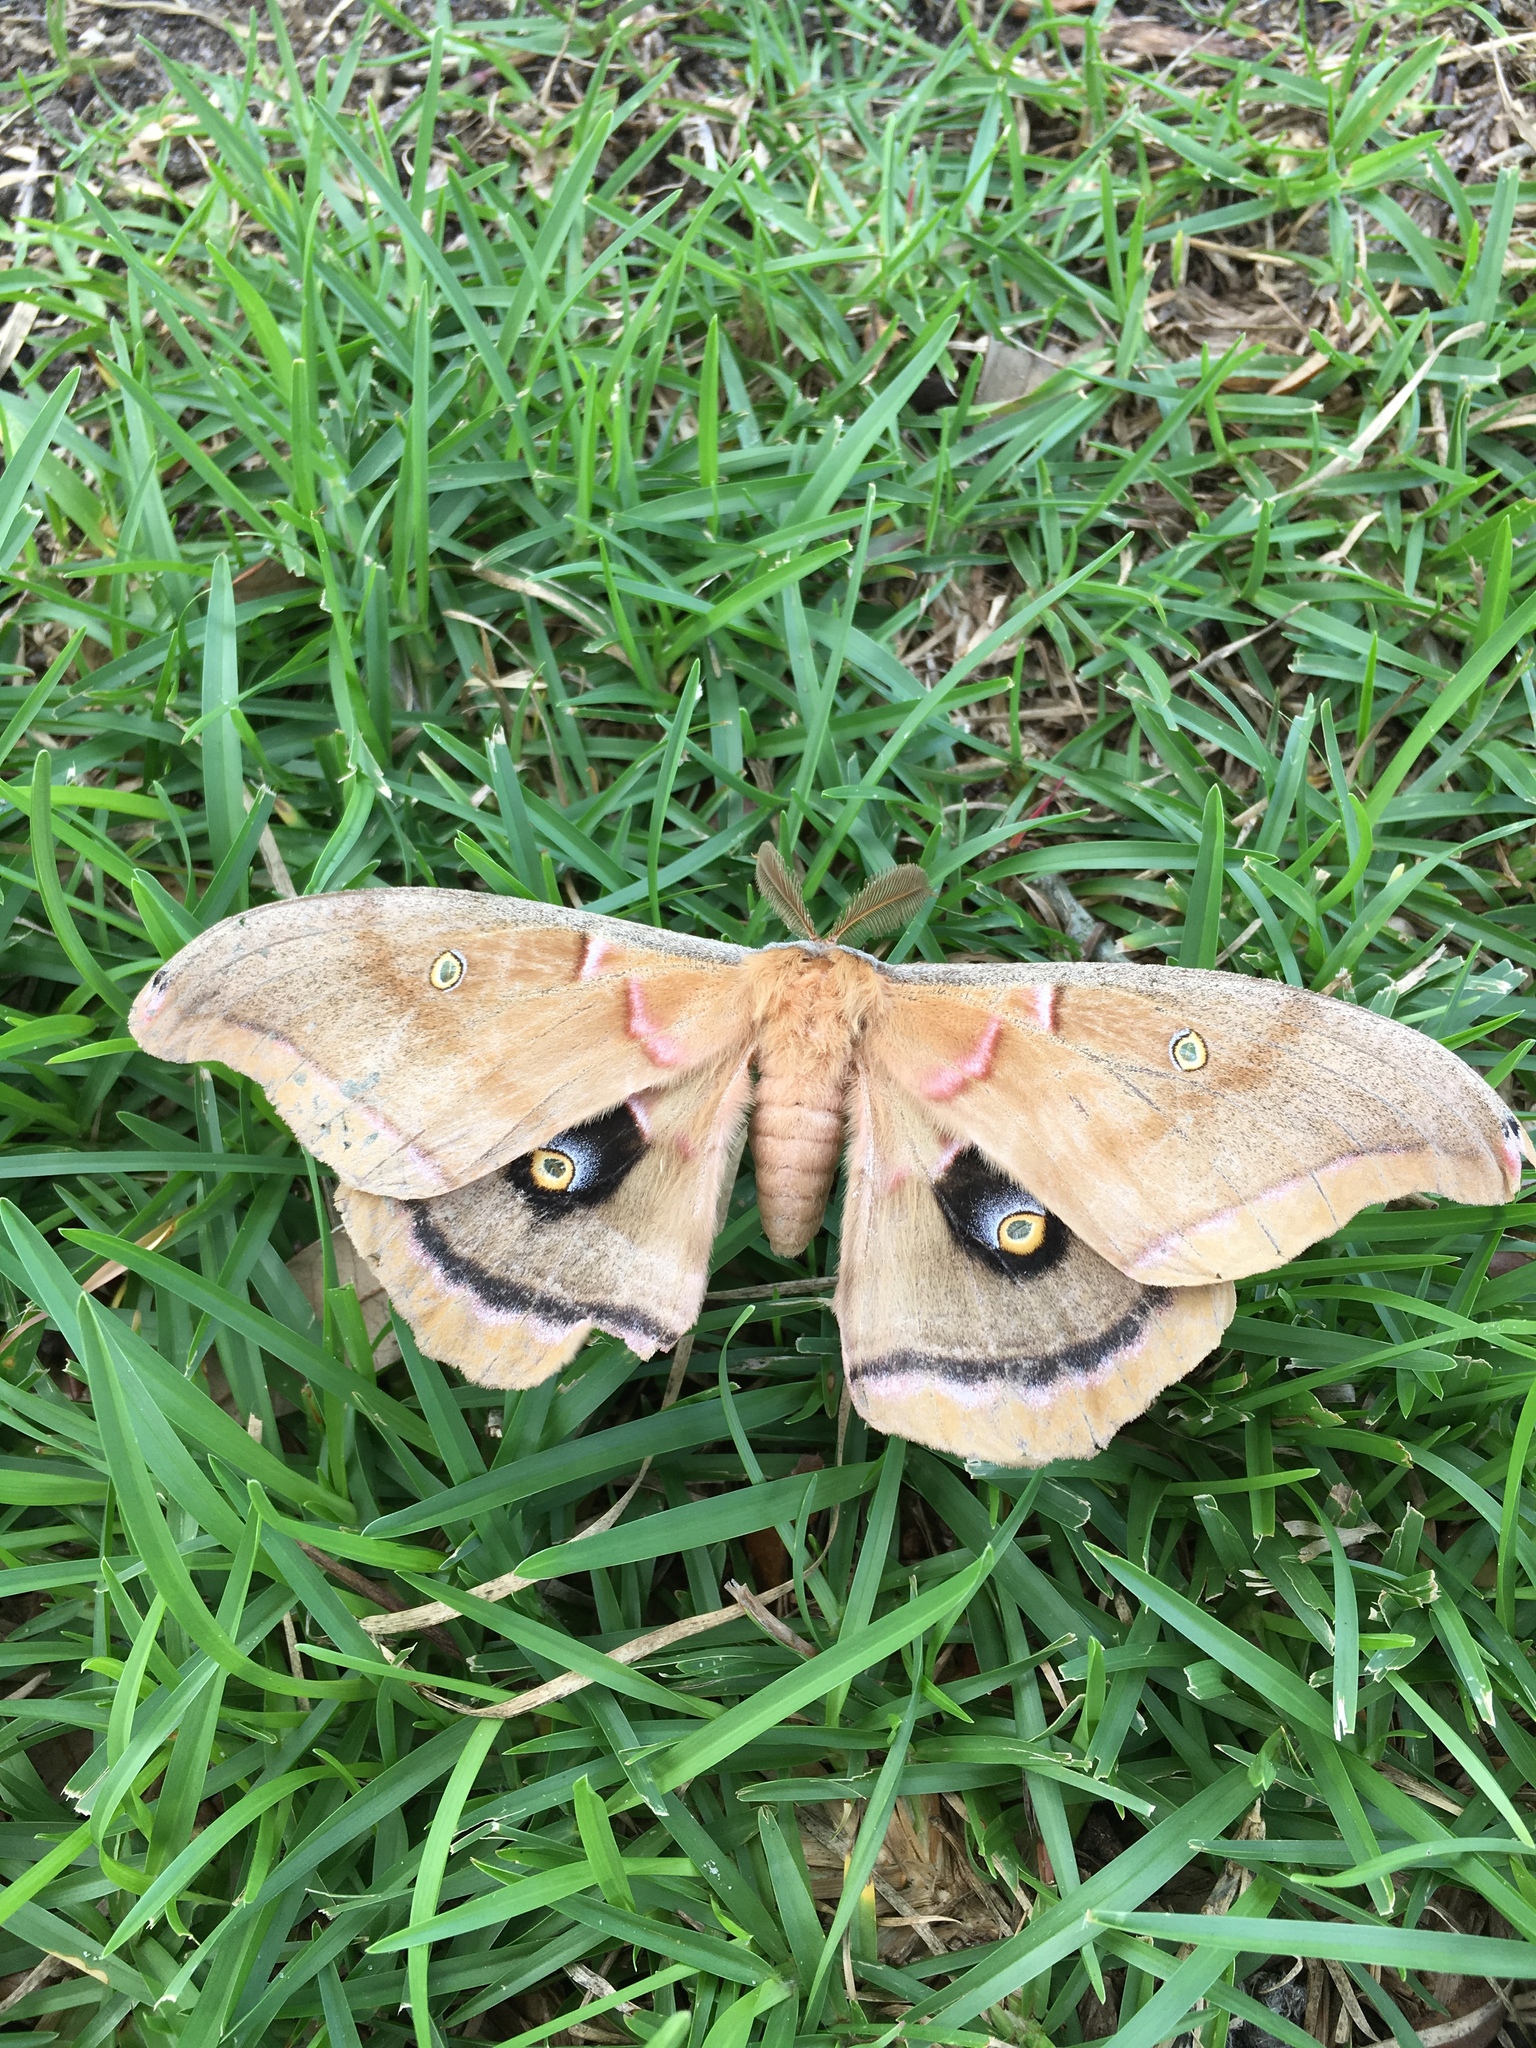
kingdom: Animalia
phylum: Arthropoda
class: Insecta
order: Lepidoptera
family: Saturniidae
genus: Antheraea
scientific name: Antheraea polyphemus
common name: Polyphemus moth
